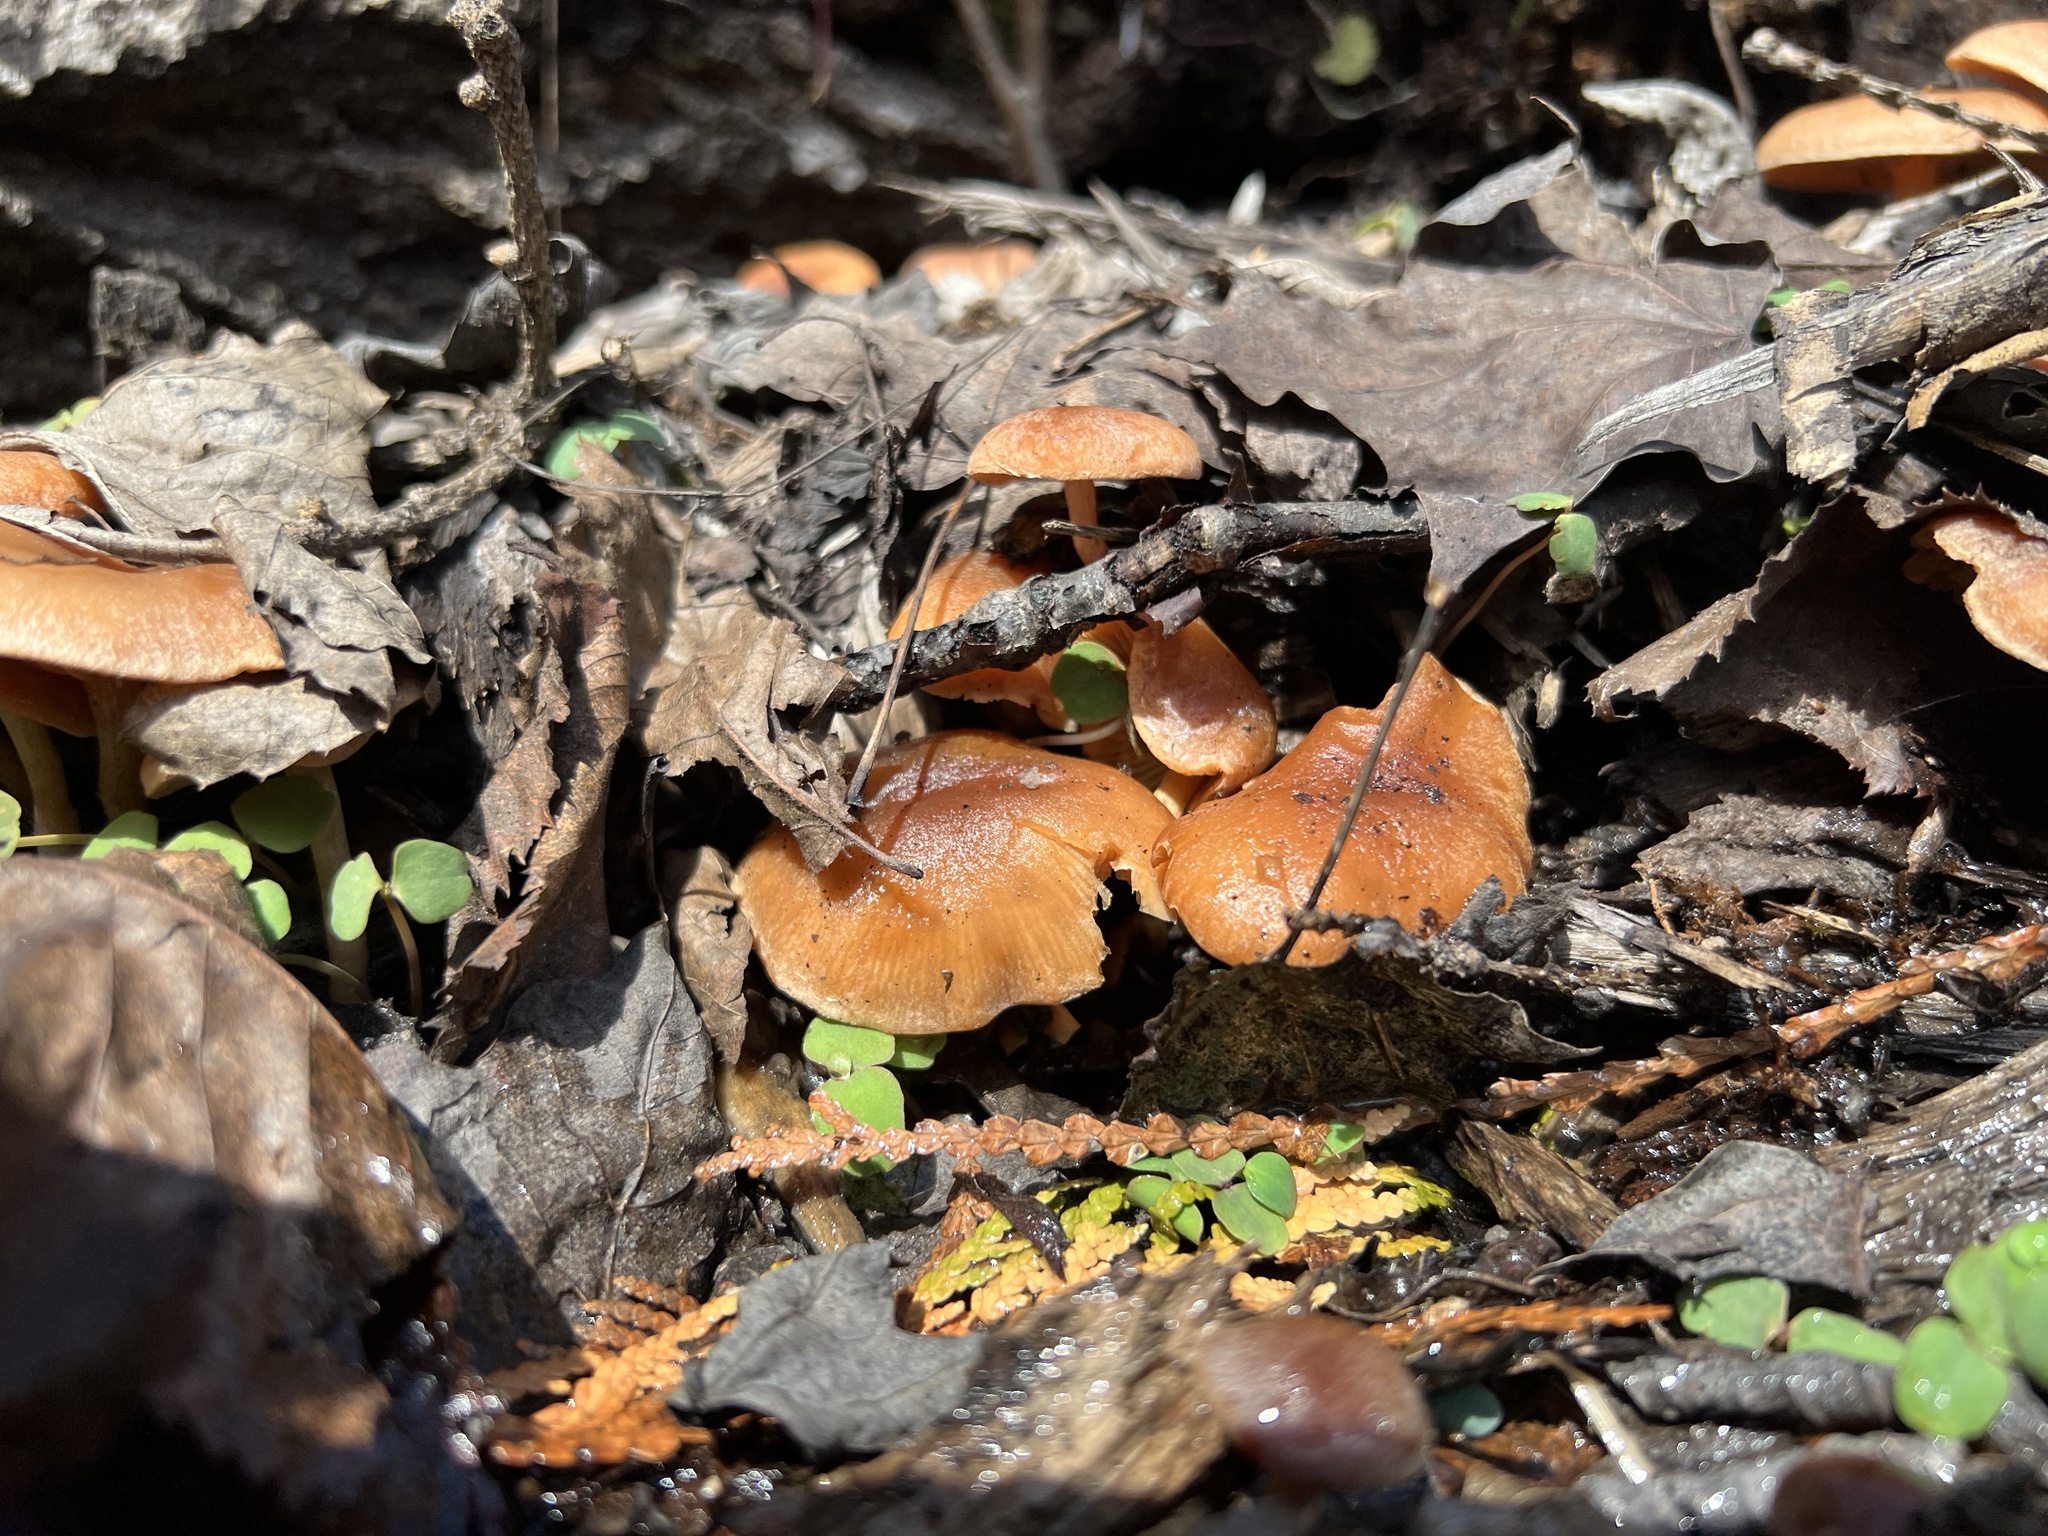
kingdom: Fungi
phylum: Basidiomycota
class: Agaricomycetes
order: Agaricales
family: Tubariaceae
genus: Tubaria
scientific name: Tubaria furfuracea
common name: Scurfy twiglet
